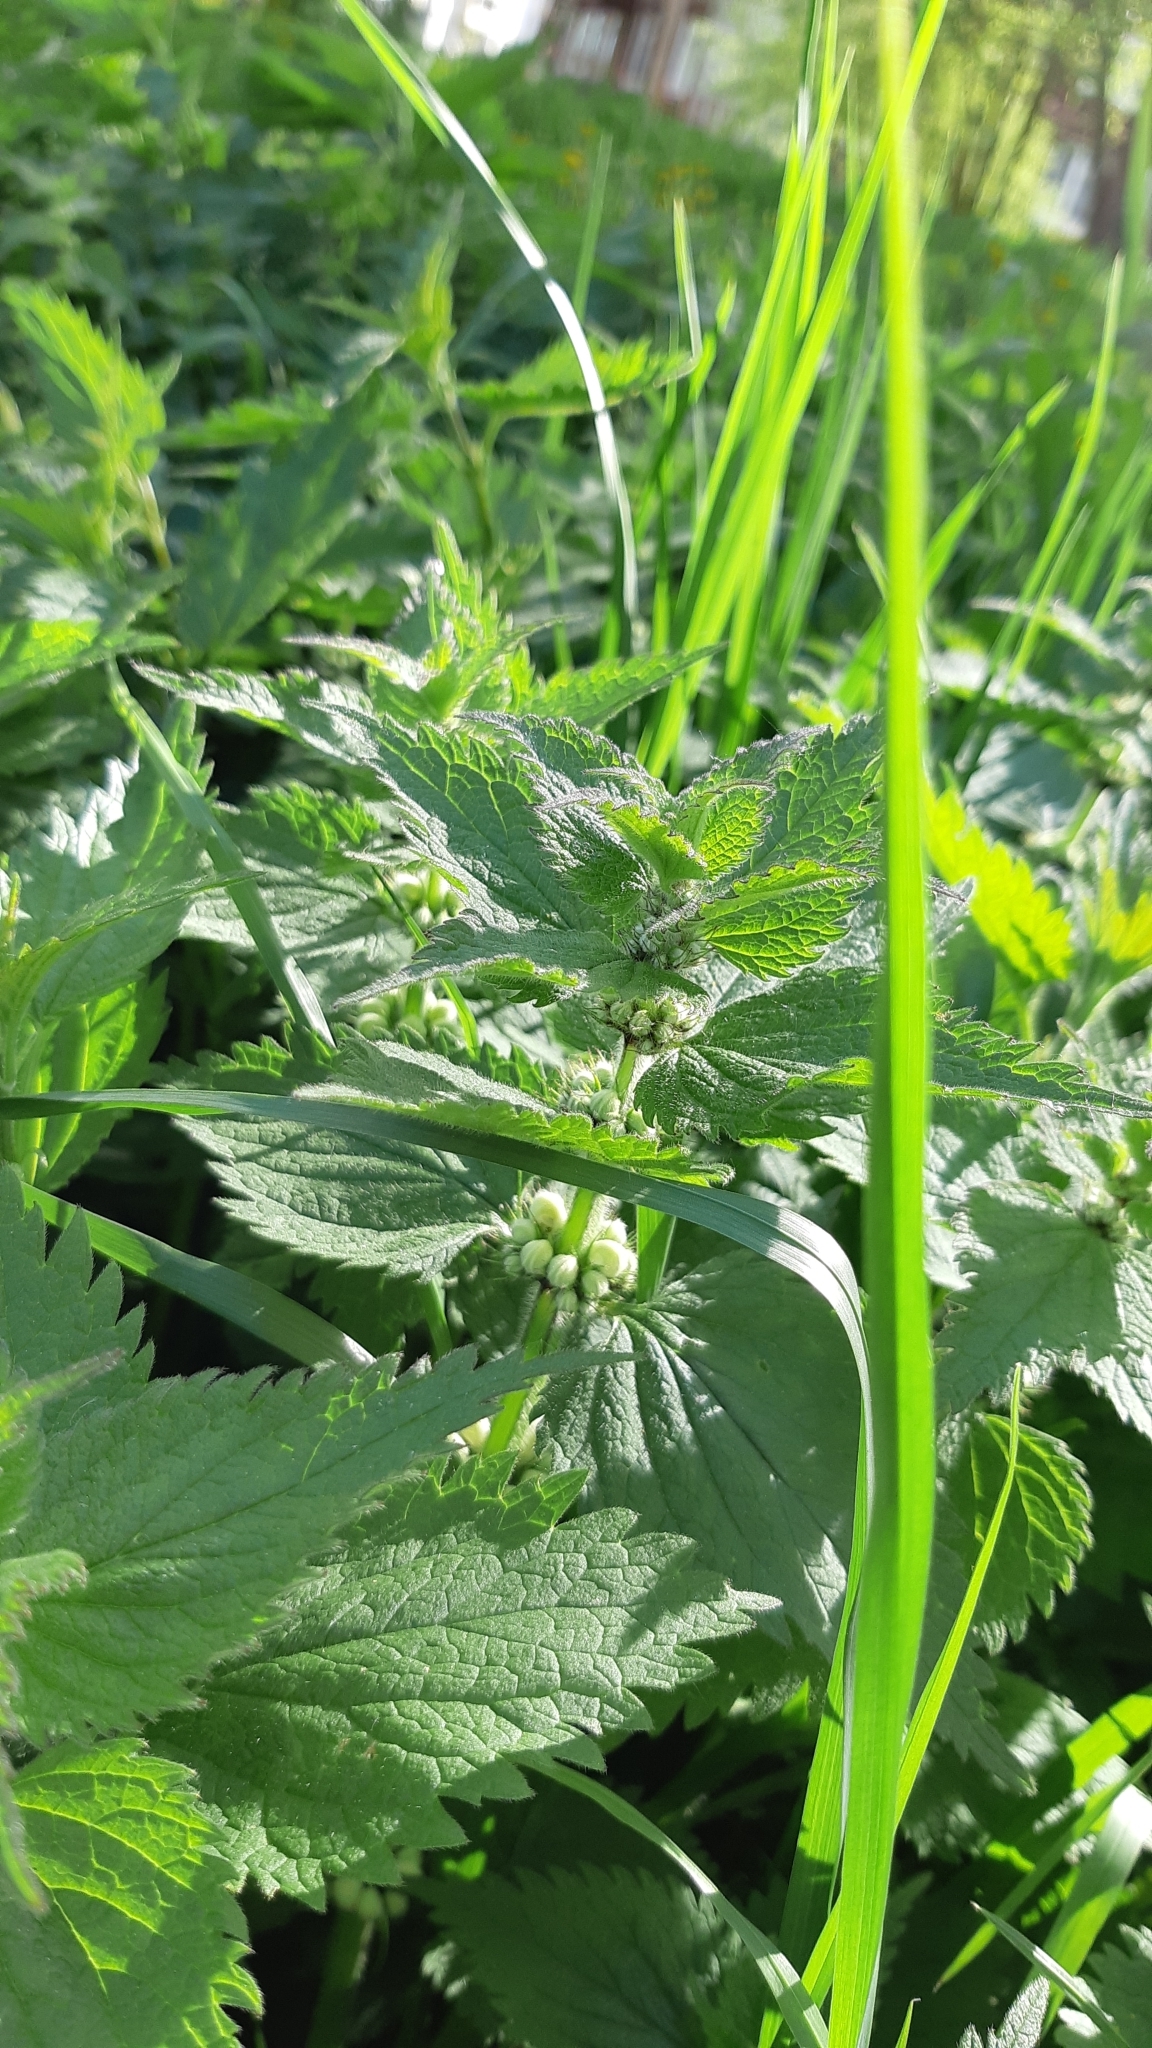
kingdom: Plantae
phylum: Tracheophyta
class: Magnoliopsida
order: Lamiales
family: Lamiaceae
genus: Lamium
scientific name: Lamium album
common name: White dead-nettle
